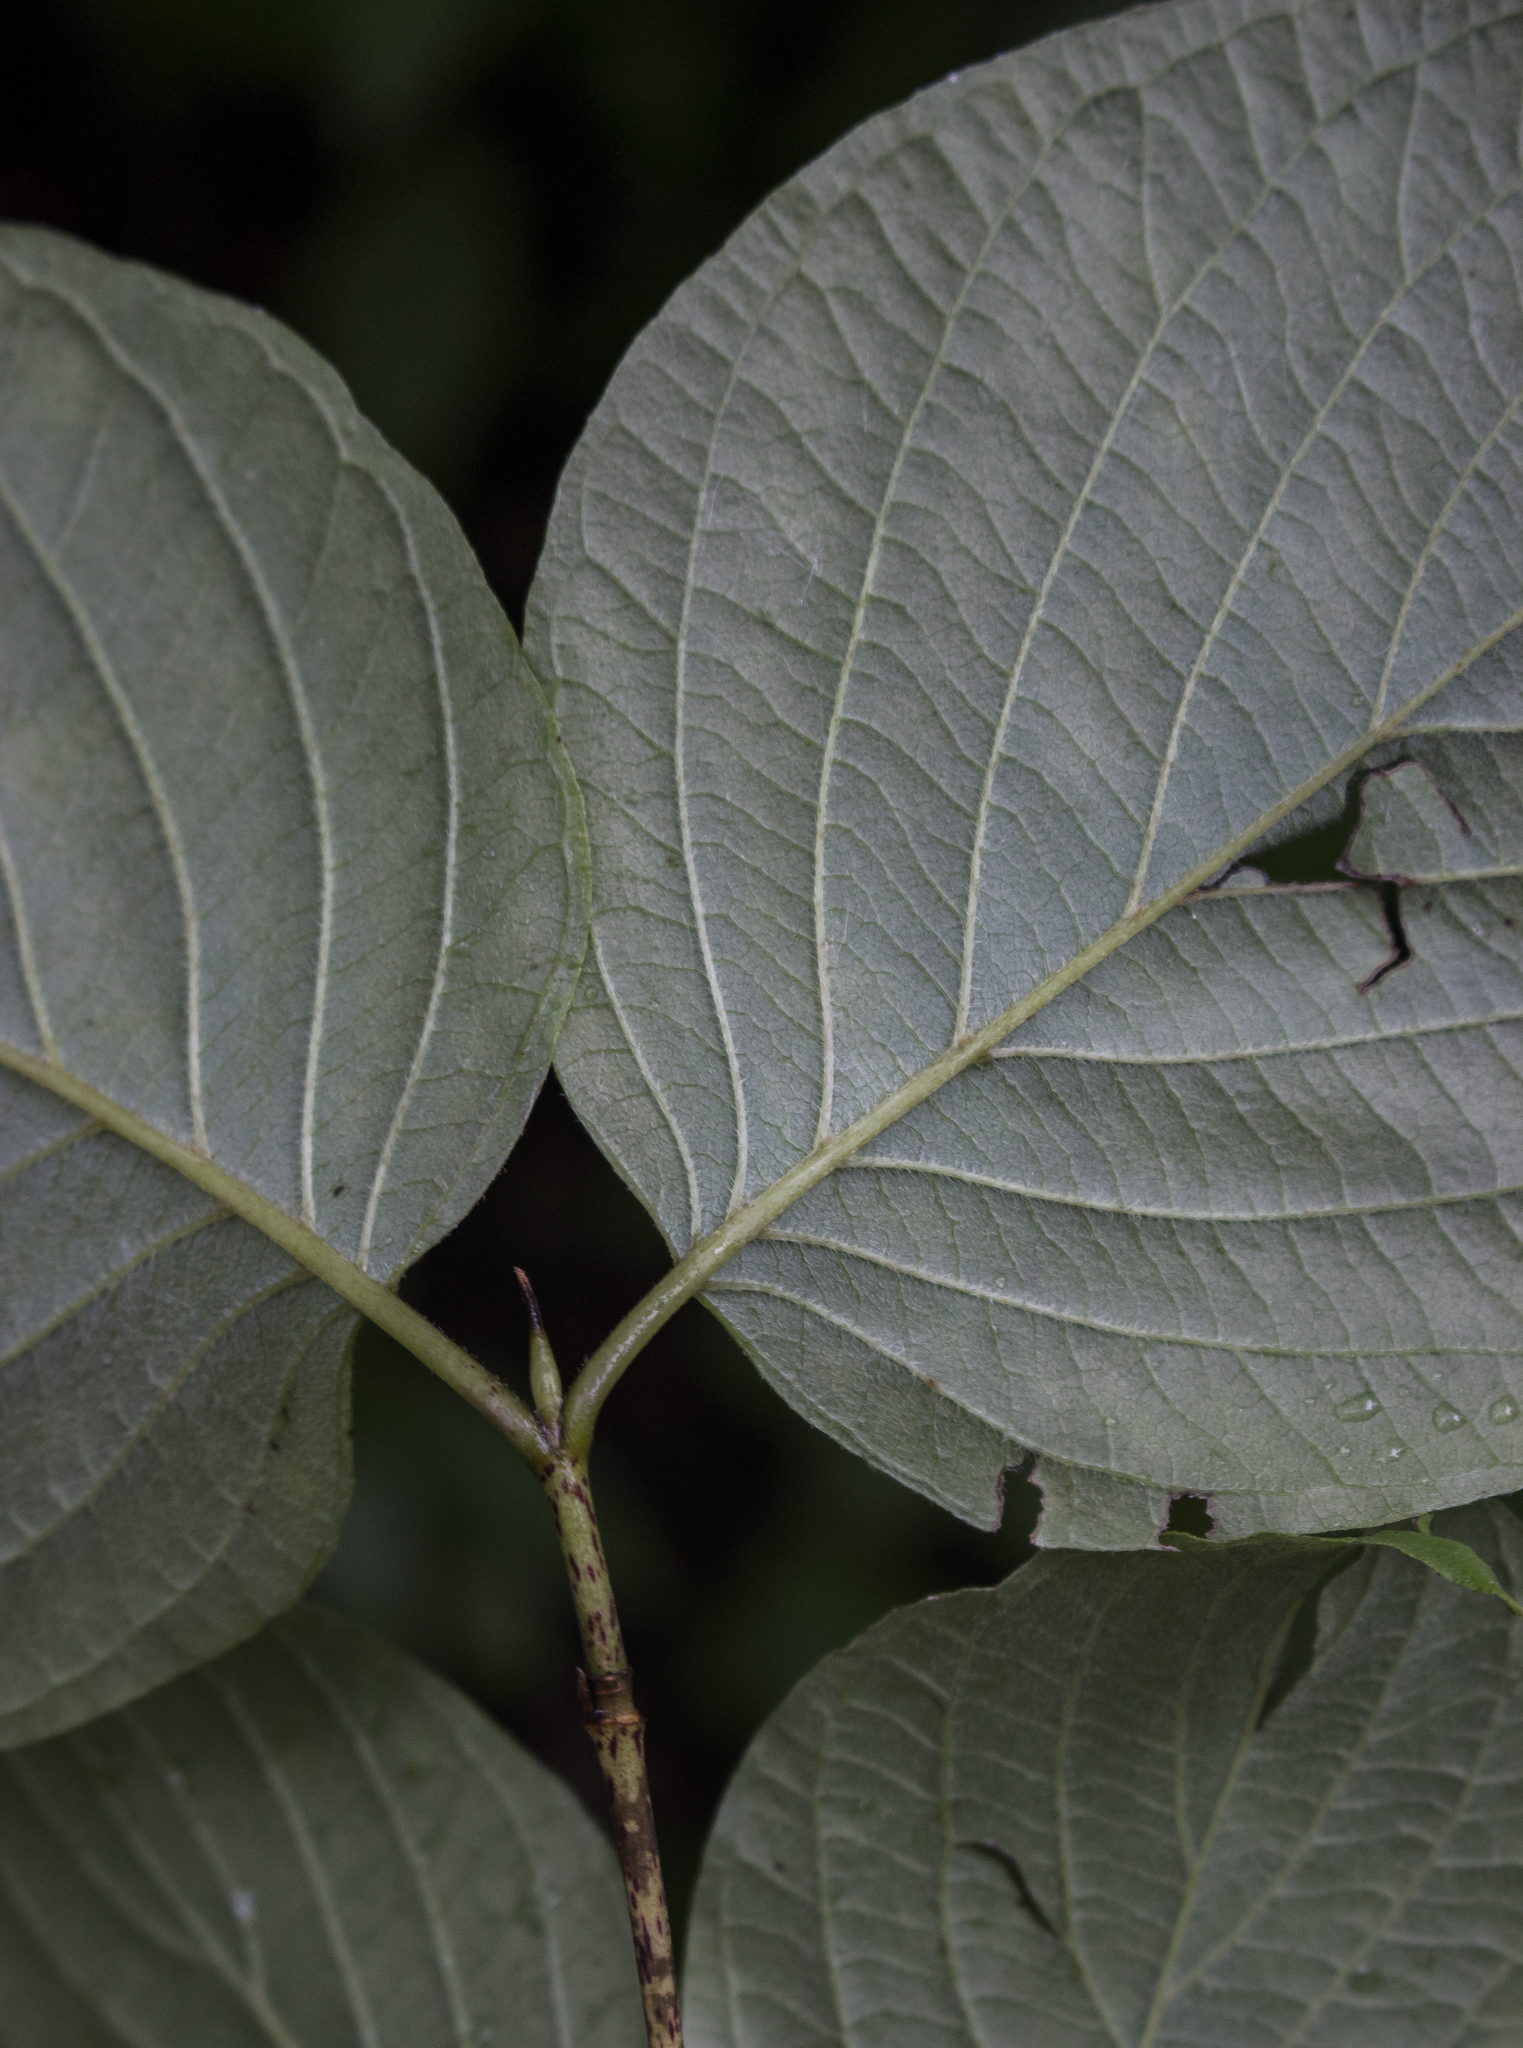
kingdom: Plantae
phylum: Tracheophyta
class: Magnoliopsida
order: Cornales
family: Cornaceae
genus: Cornus
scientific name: Cornus rugosa
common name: Round-leaf dogwood
